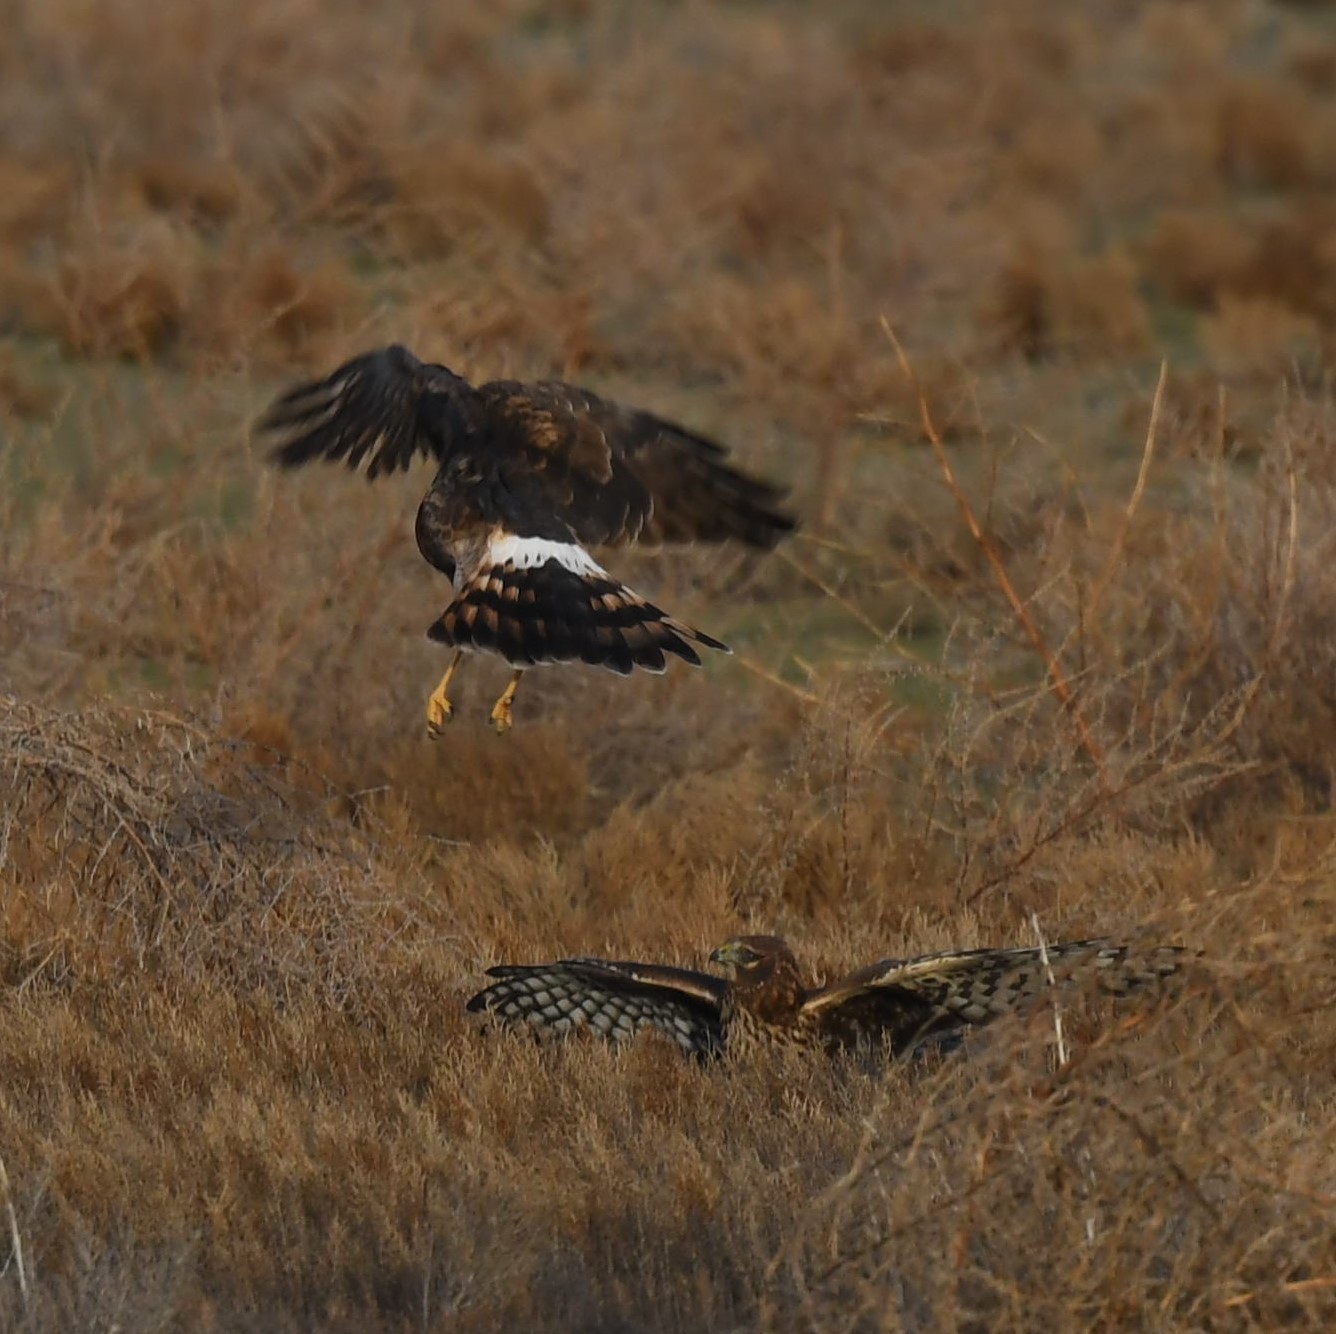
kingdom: Animalia
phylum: Chordata
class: Aves
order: Accipitriformes
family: Accipitridae
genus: Circus
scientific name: Circus cyaneus
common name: Hen harrier
